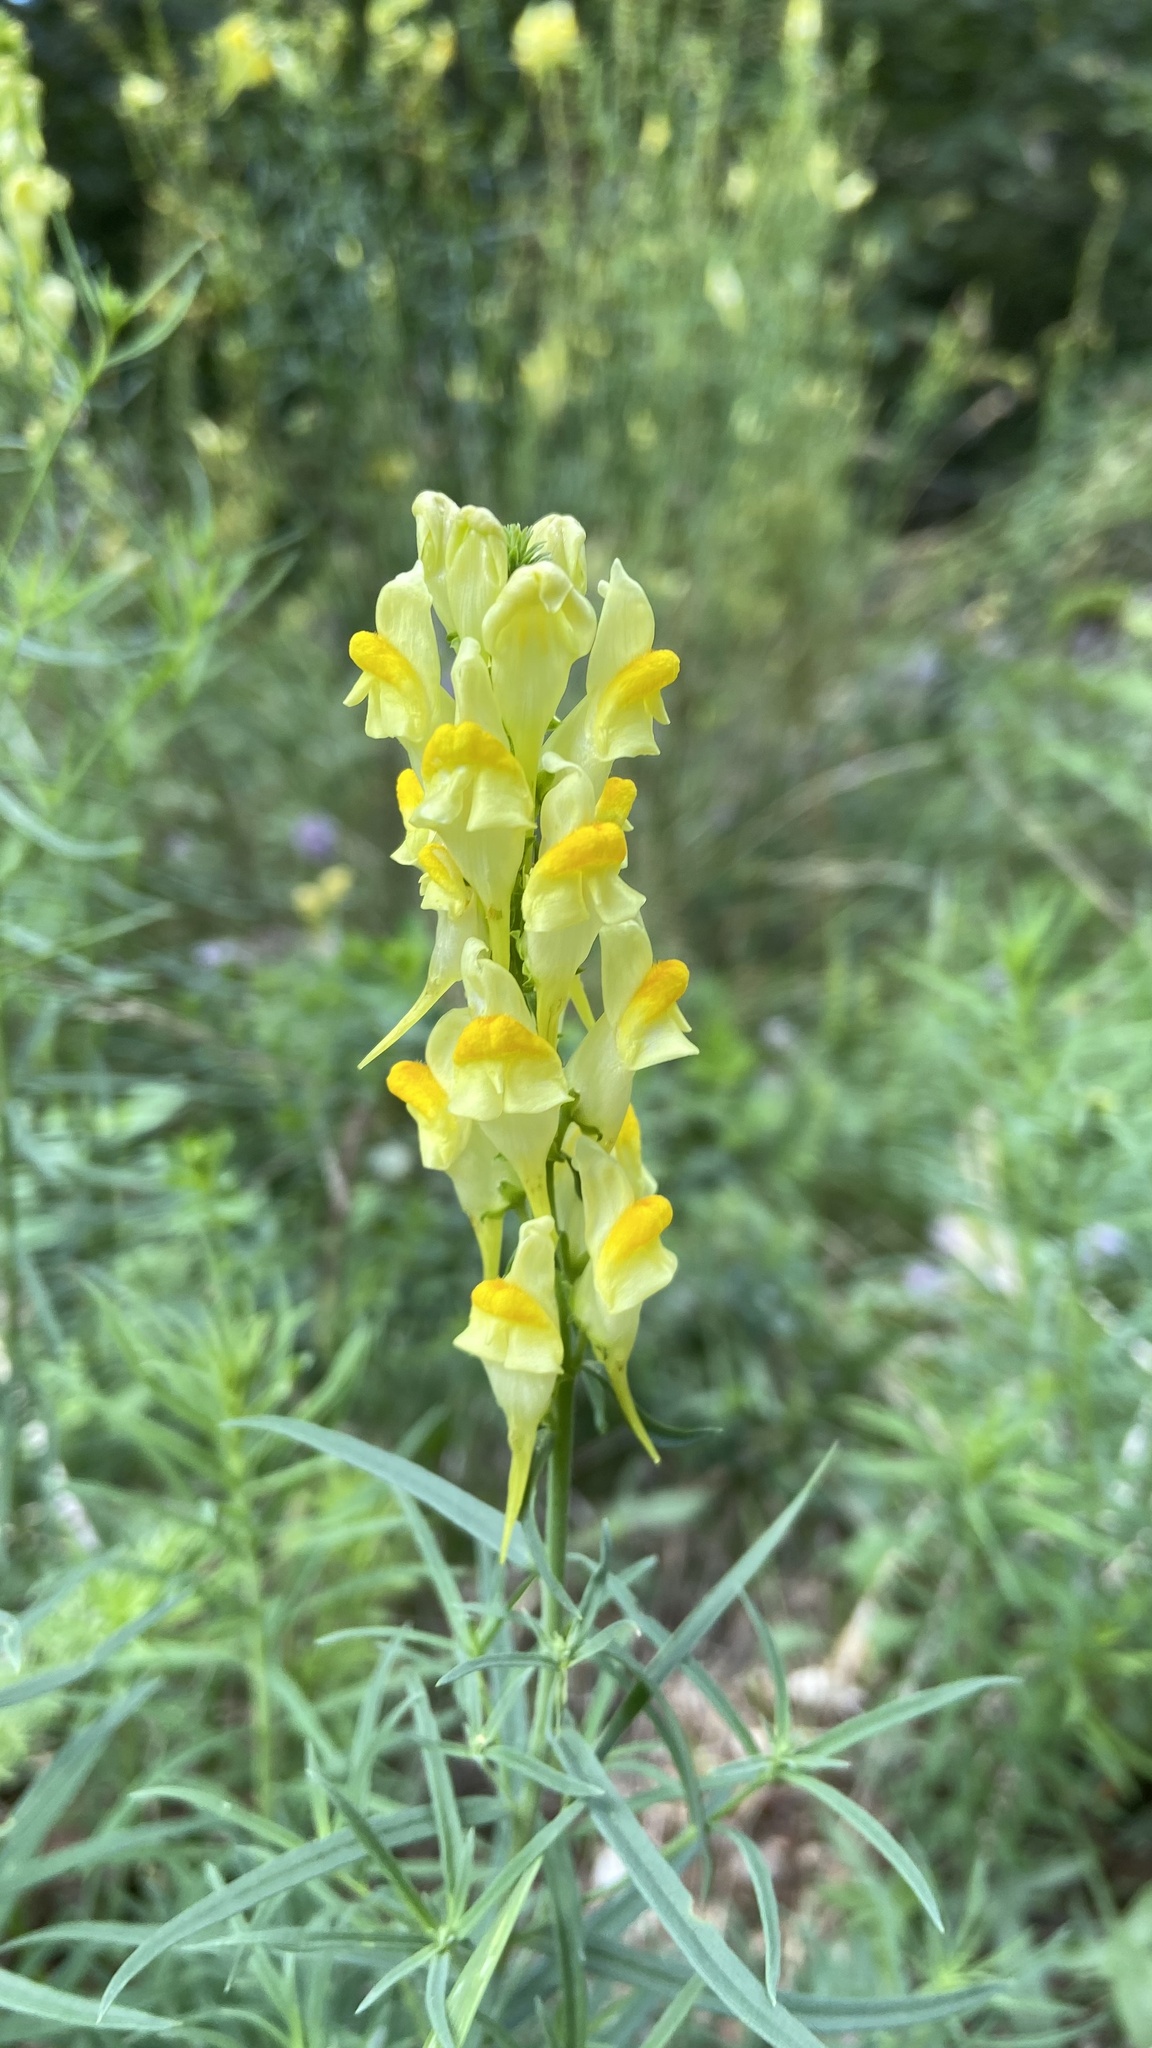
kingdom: Plantae
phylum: Tracheophyta
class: Magnoliopsida
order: Lamiales
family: Plantaginaceae
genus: Linaria
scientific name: Linaria vulgaris
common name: Butter and eggs
